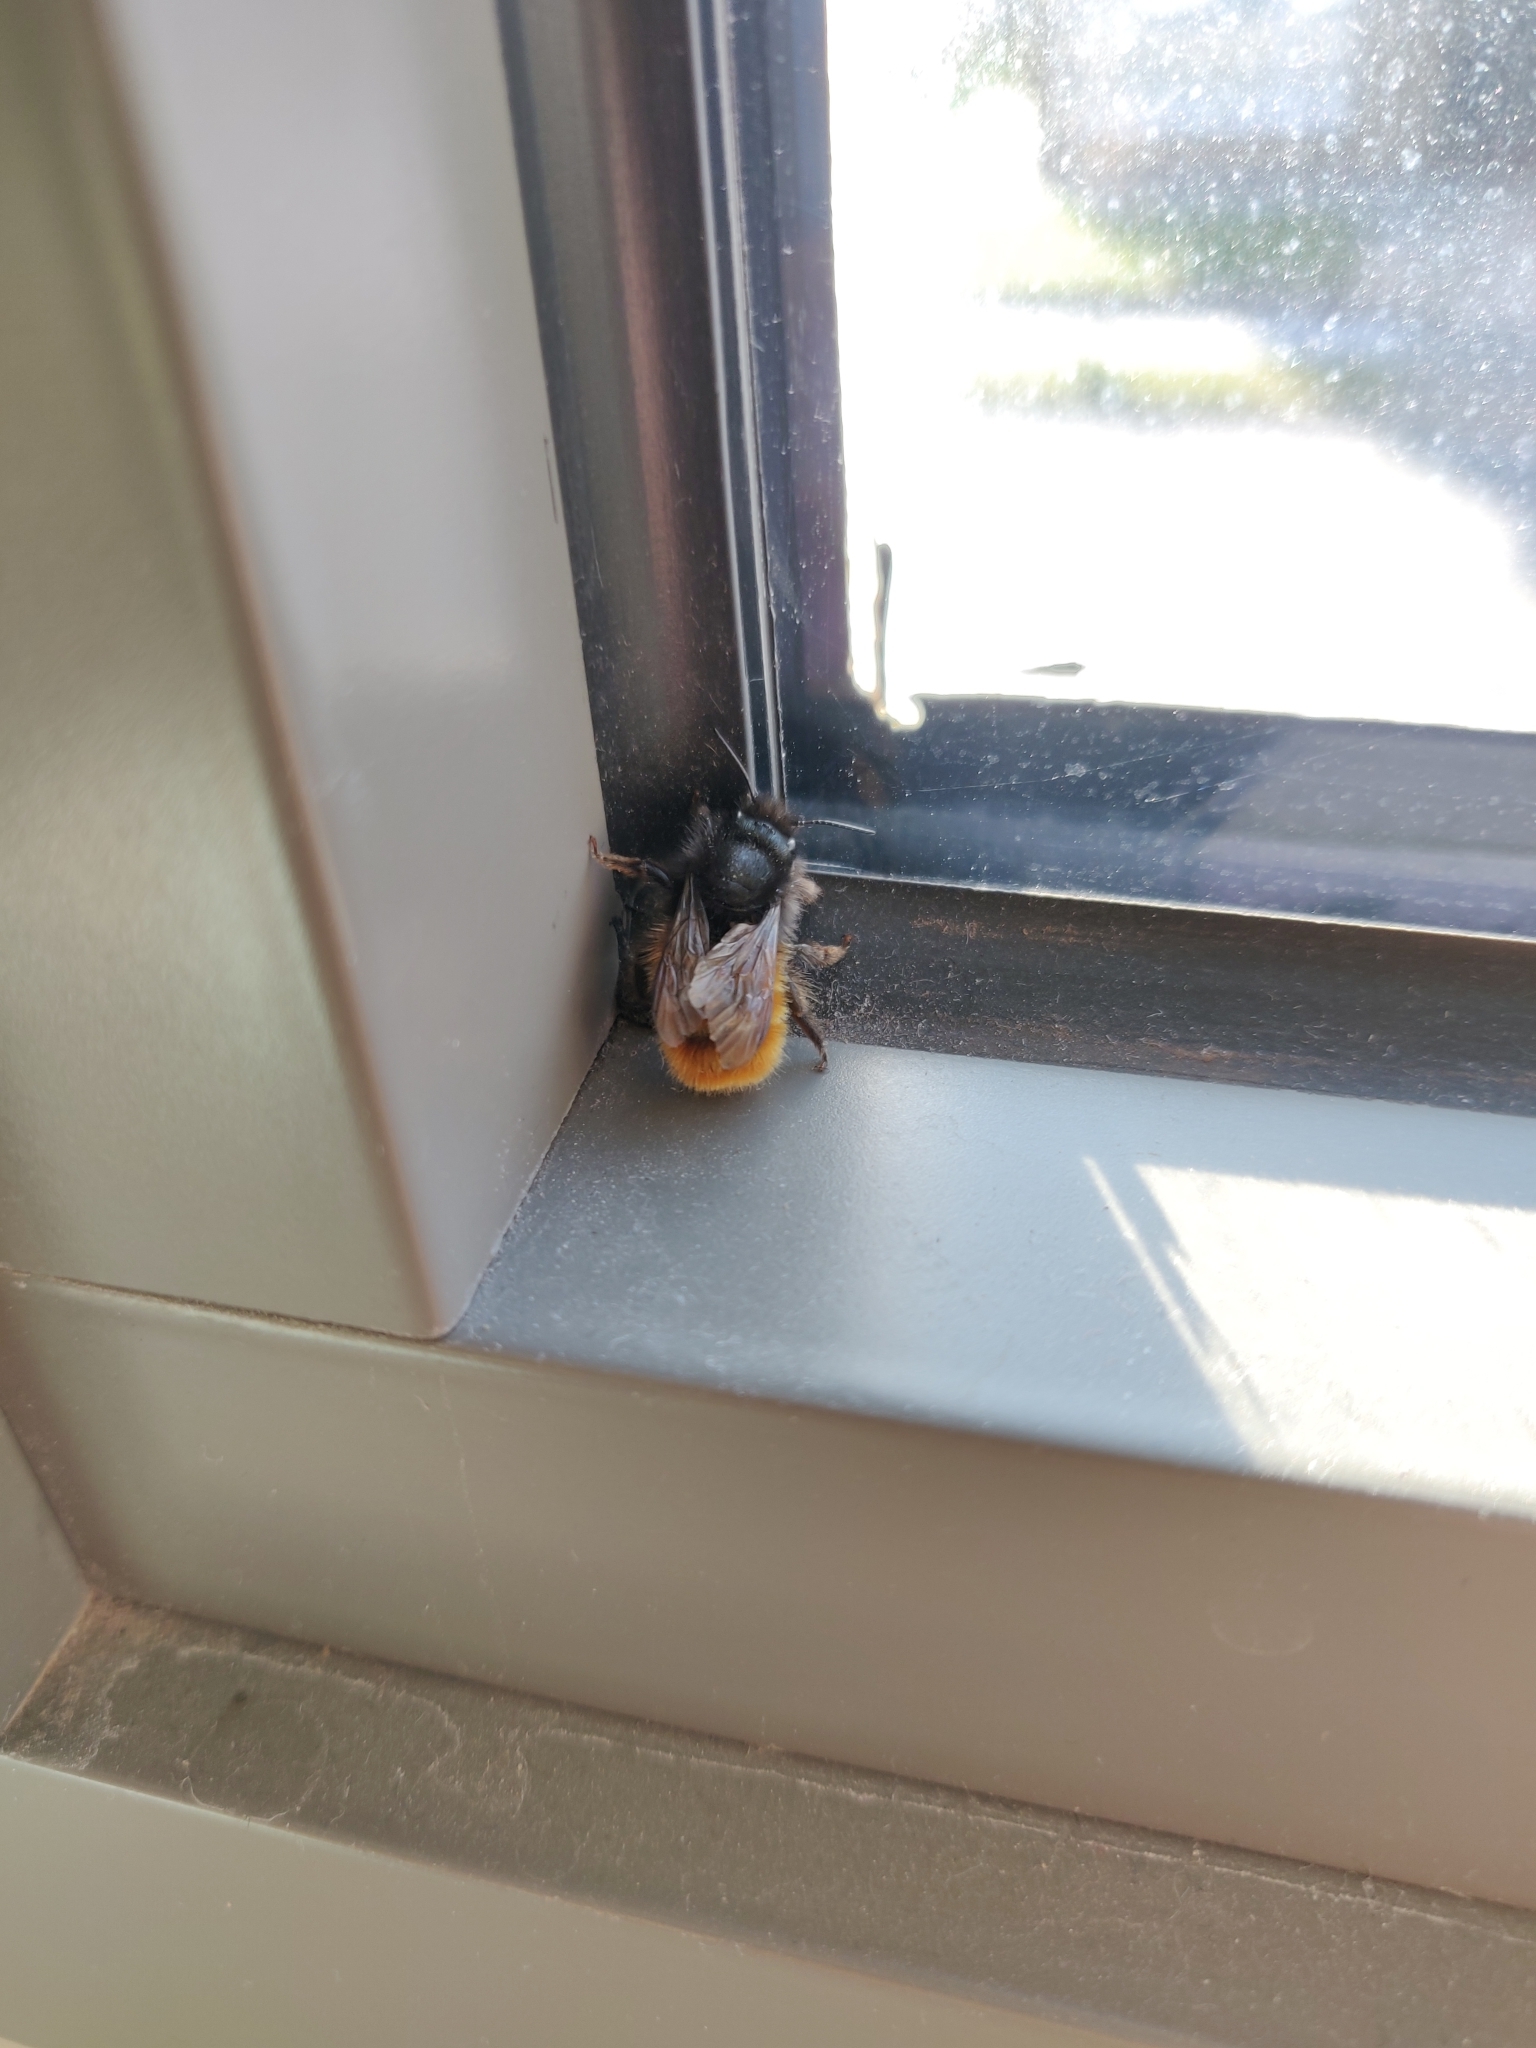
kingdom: Animalia
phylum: Arthropoda
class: Insecta
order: Hymenoptera
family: Megachilidae
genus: Osmia
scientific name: Osmia cornuta
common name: Mason bee
